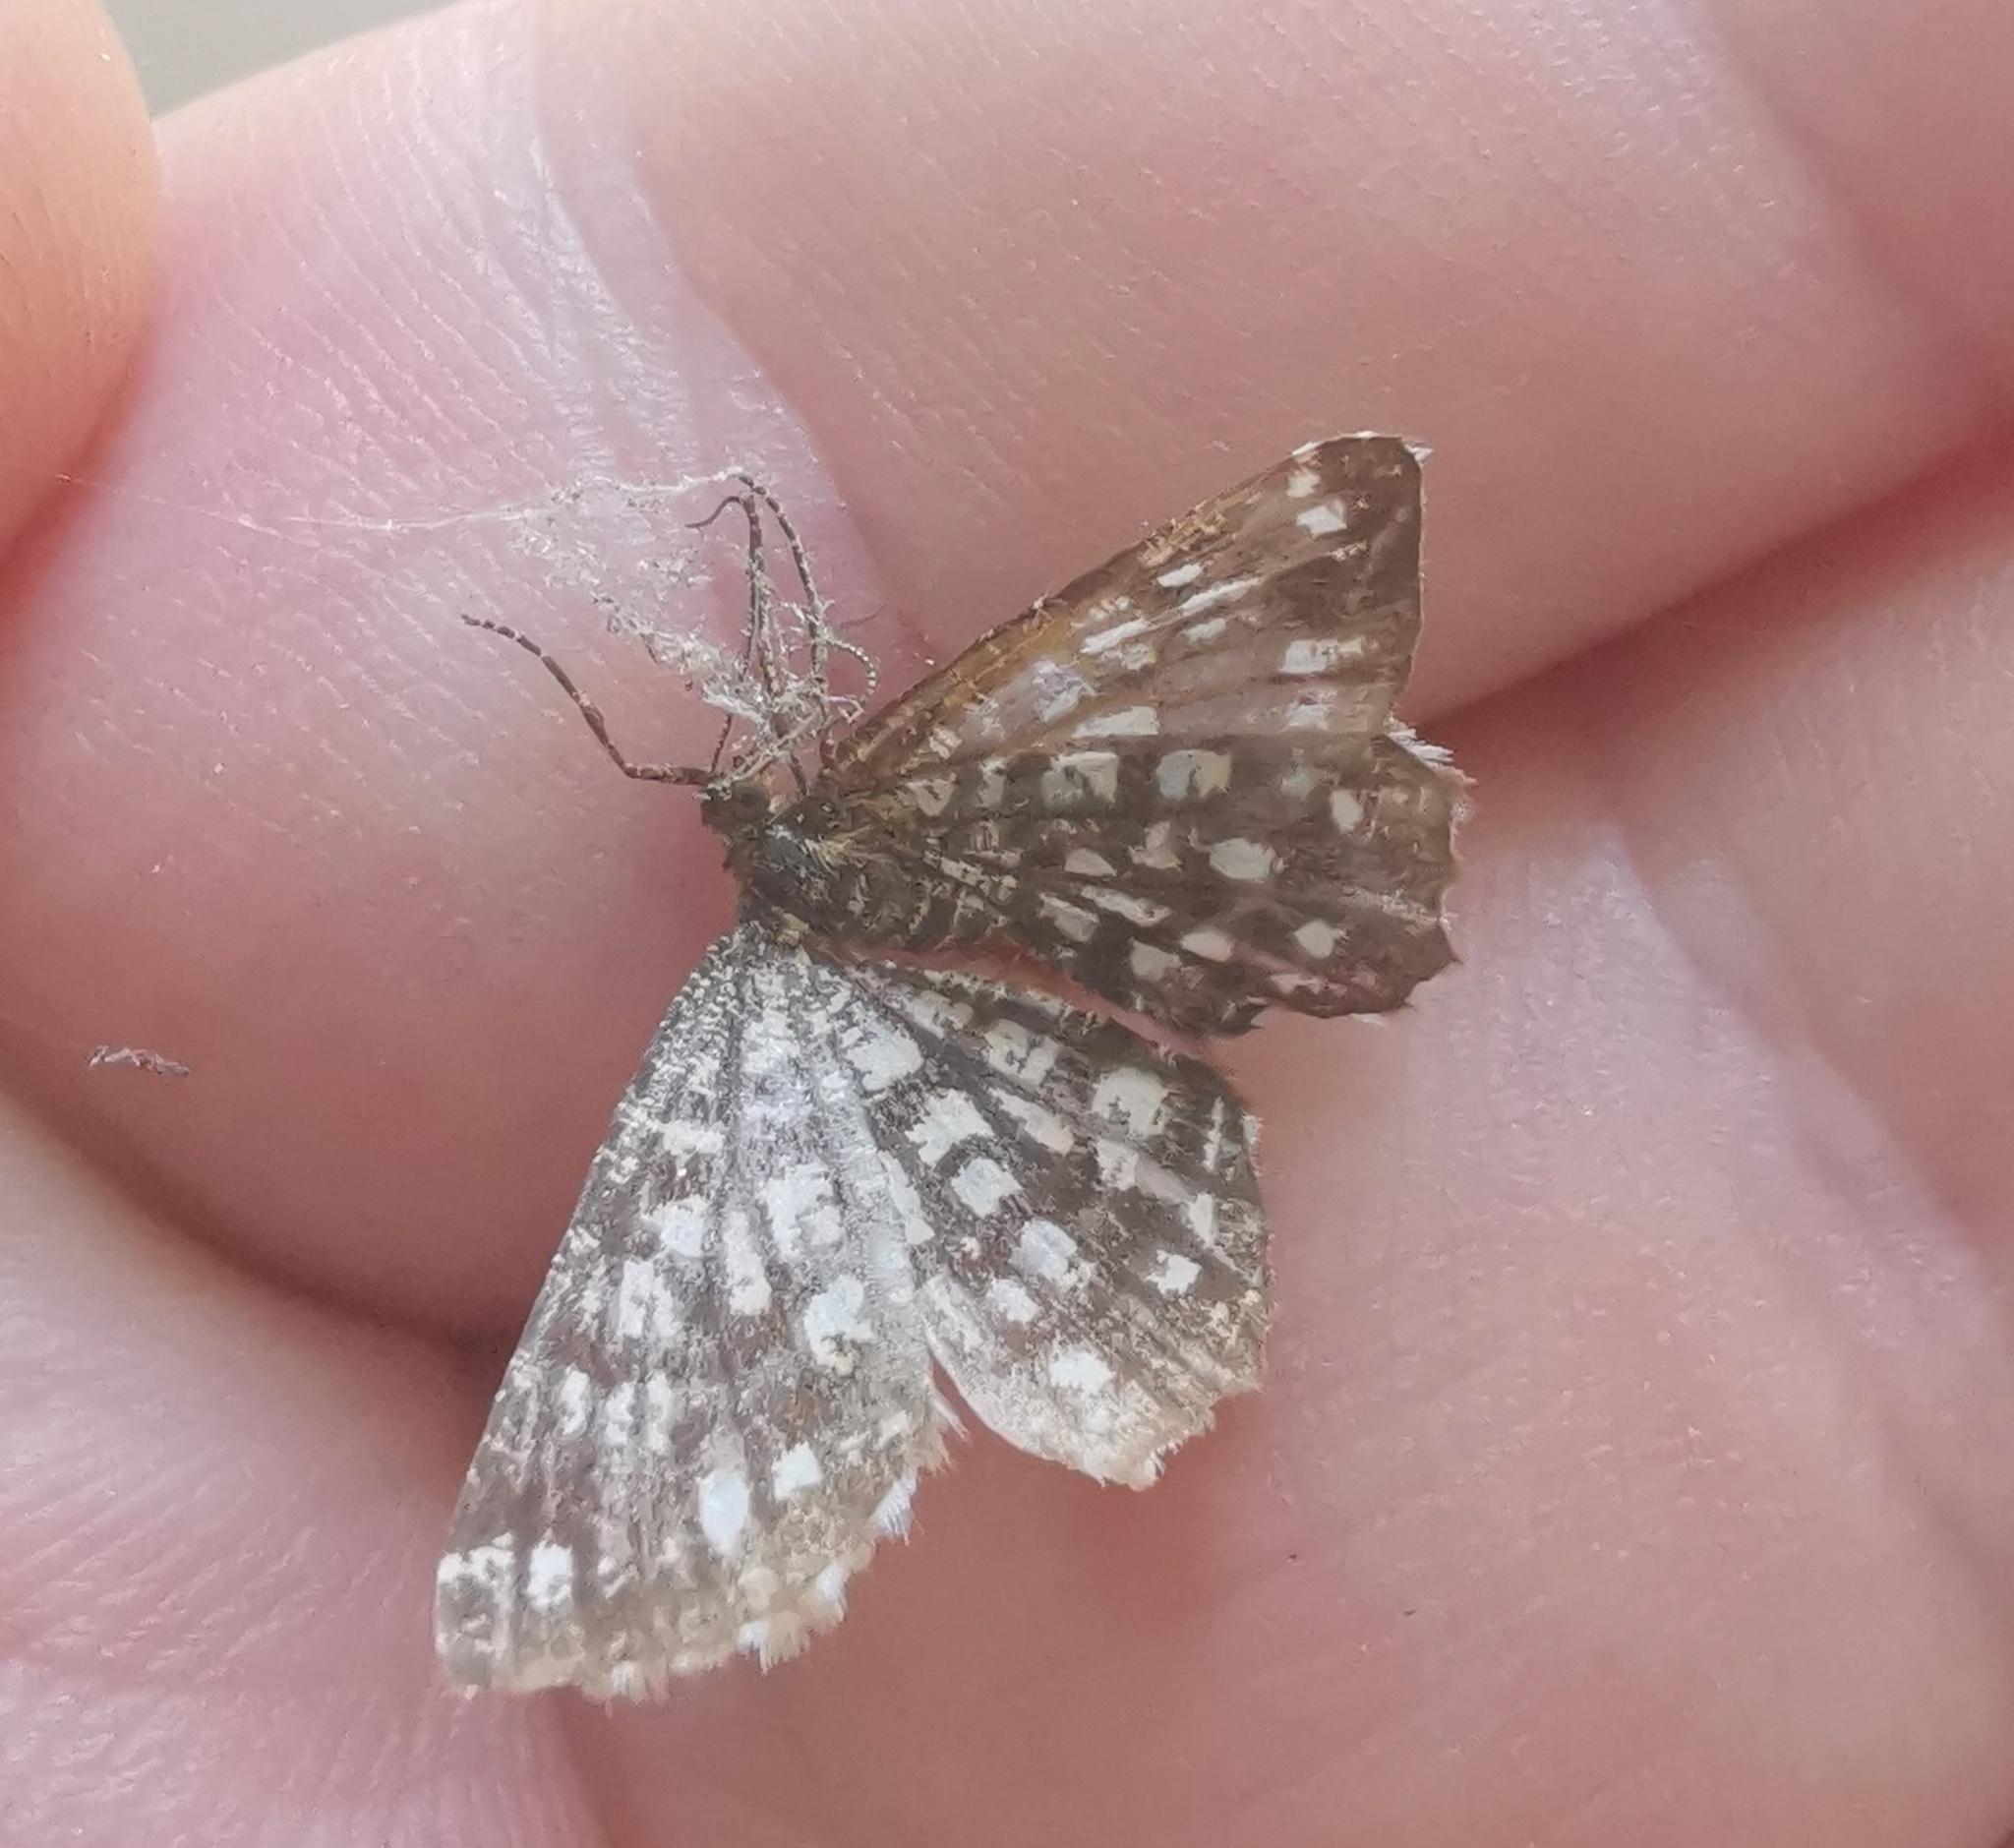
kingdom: Animalia
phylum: Arthropoda
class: Insecta
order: Lepidoptera
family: Geometridae
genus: Chiasmia
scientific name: Chiasmia clathrata
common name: Latticed heath
